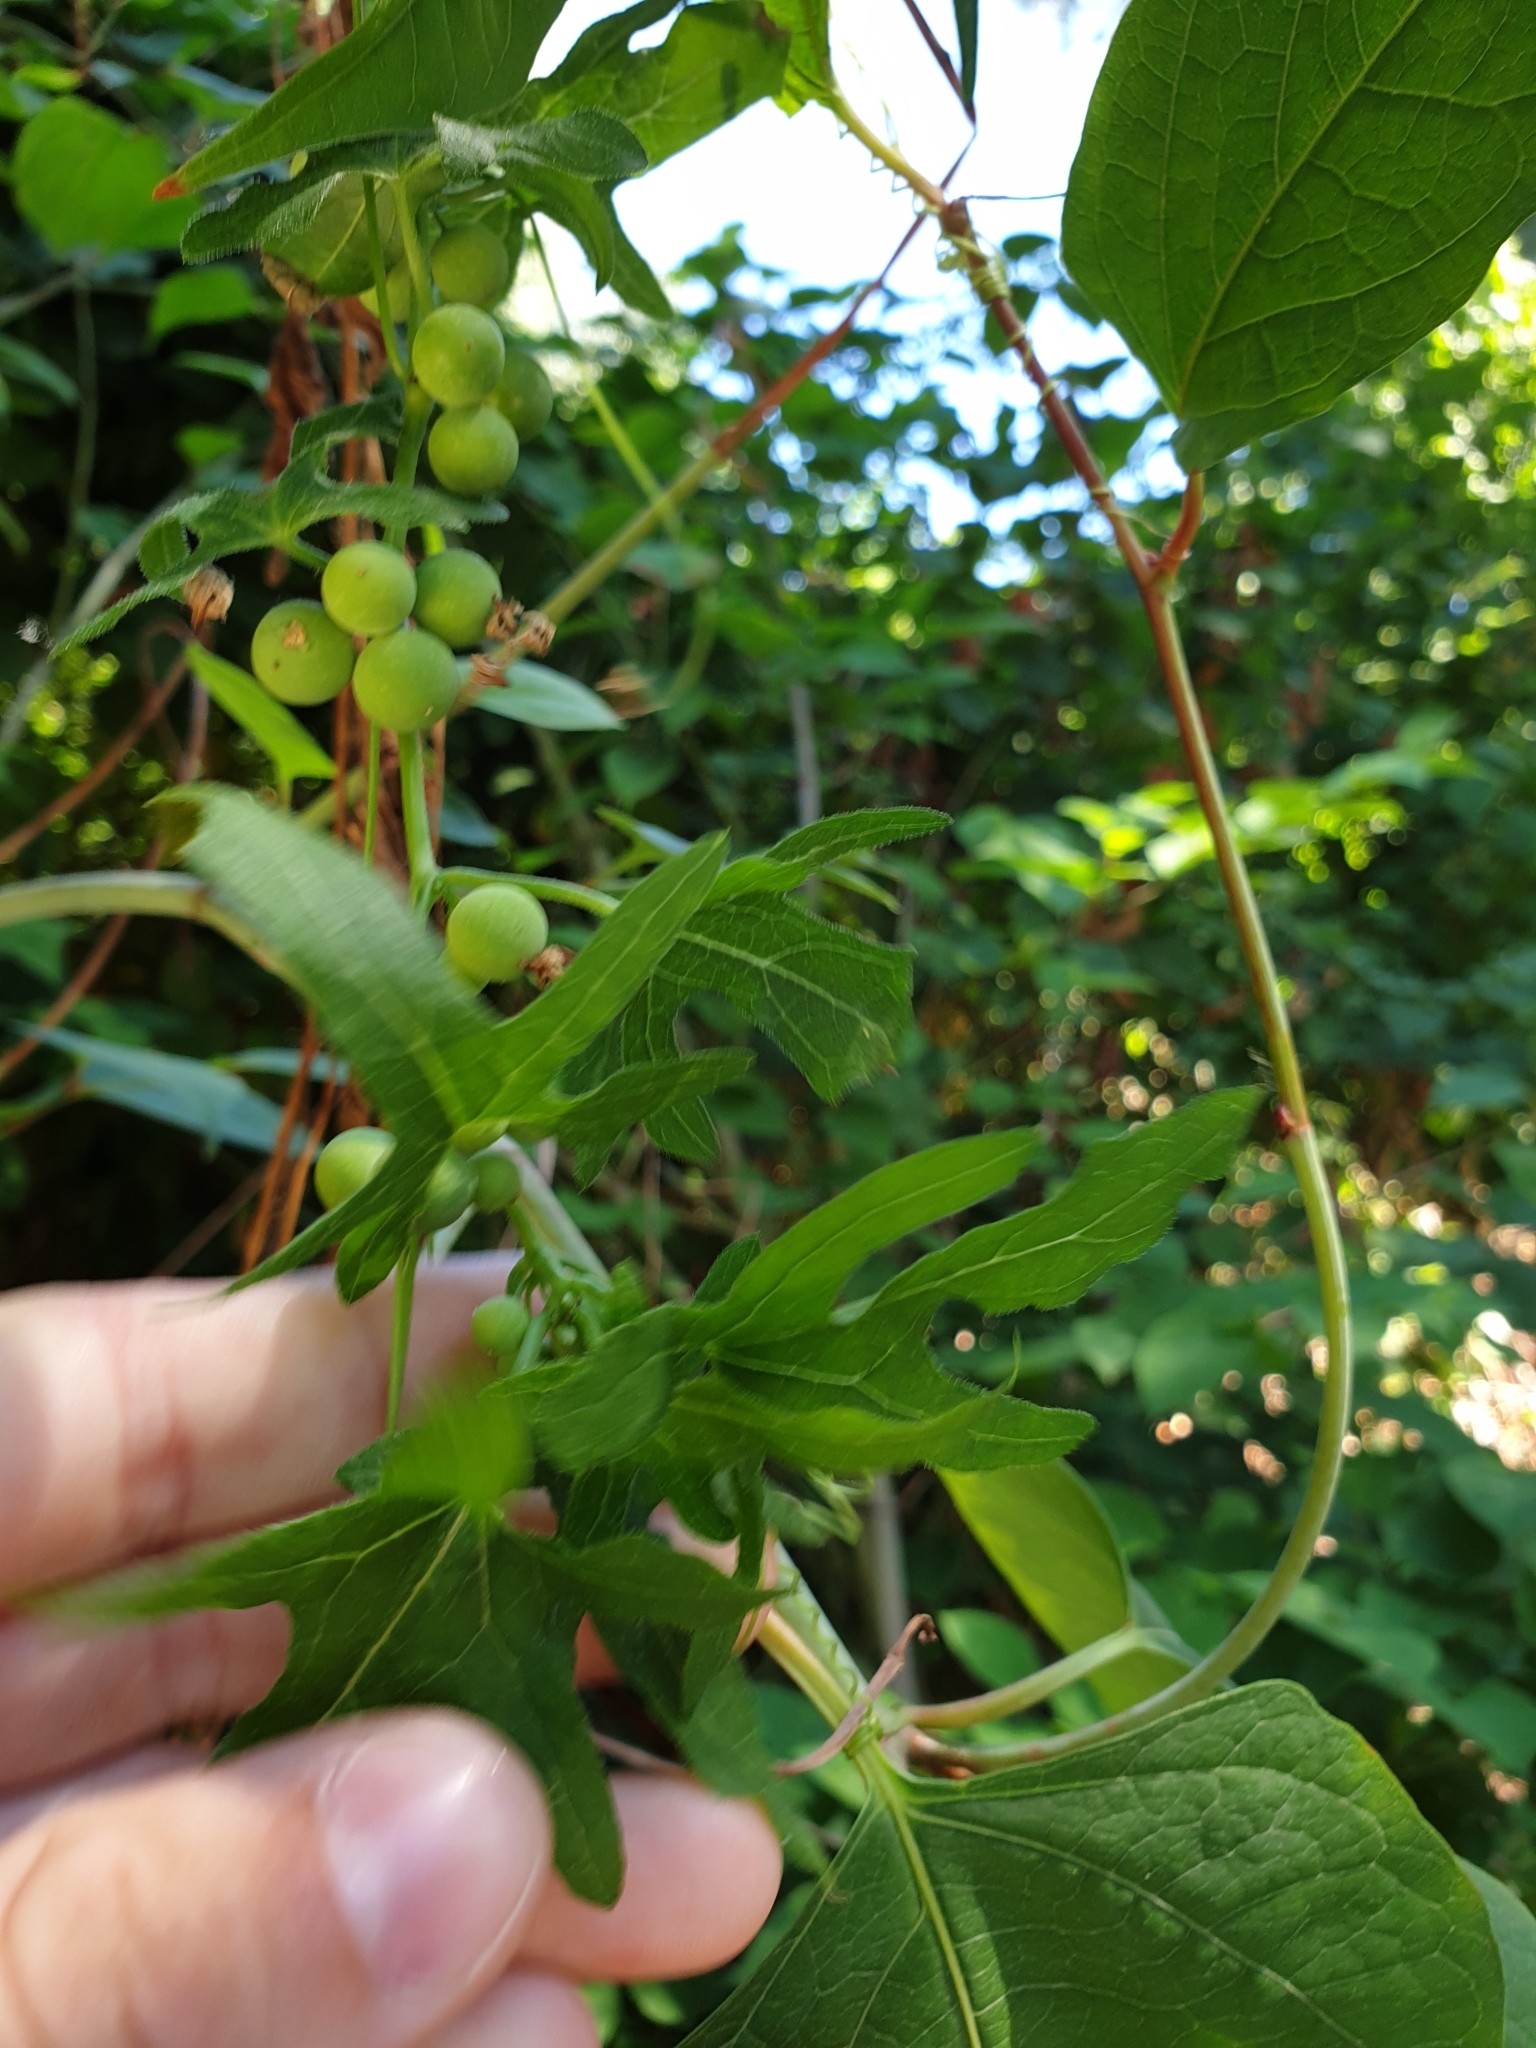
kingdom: Plantae
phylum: Tracheophyta
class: Magnoliopsida
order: Cucurbitales
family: Cucurbitaceae
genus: Bryonia
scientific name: Bryonia cretica
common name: Cretan bryony
